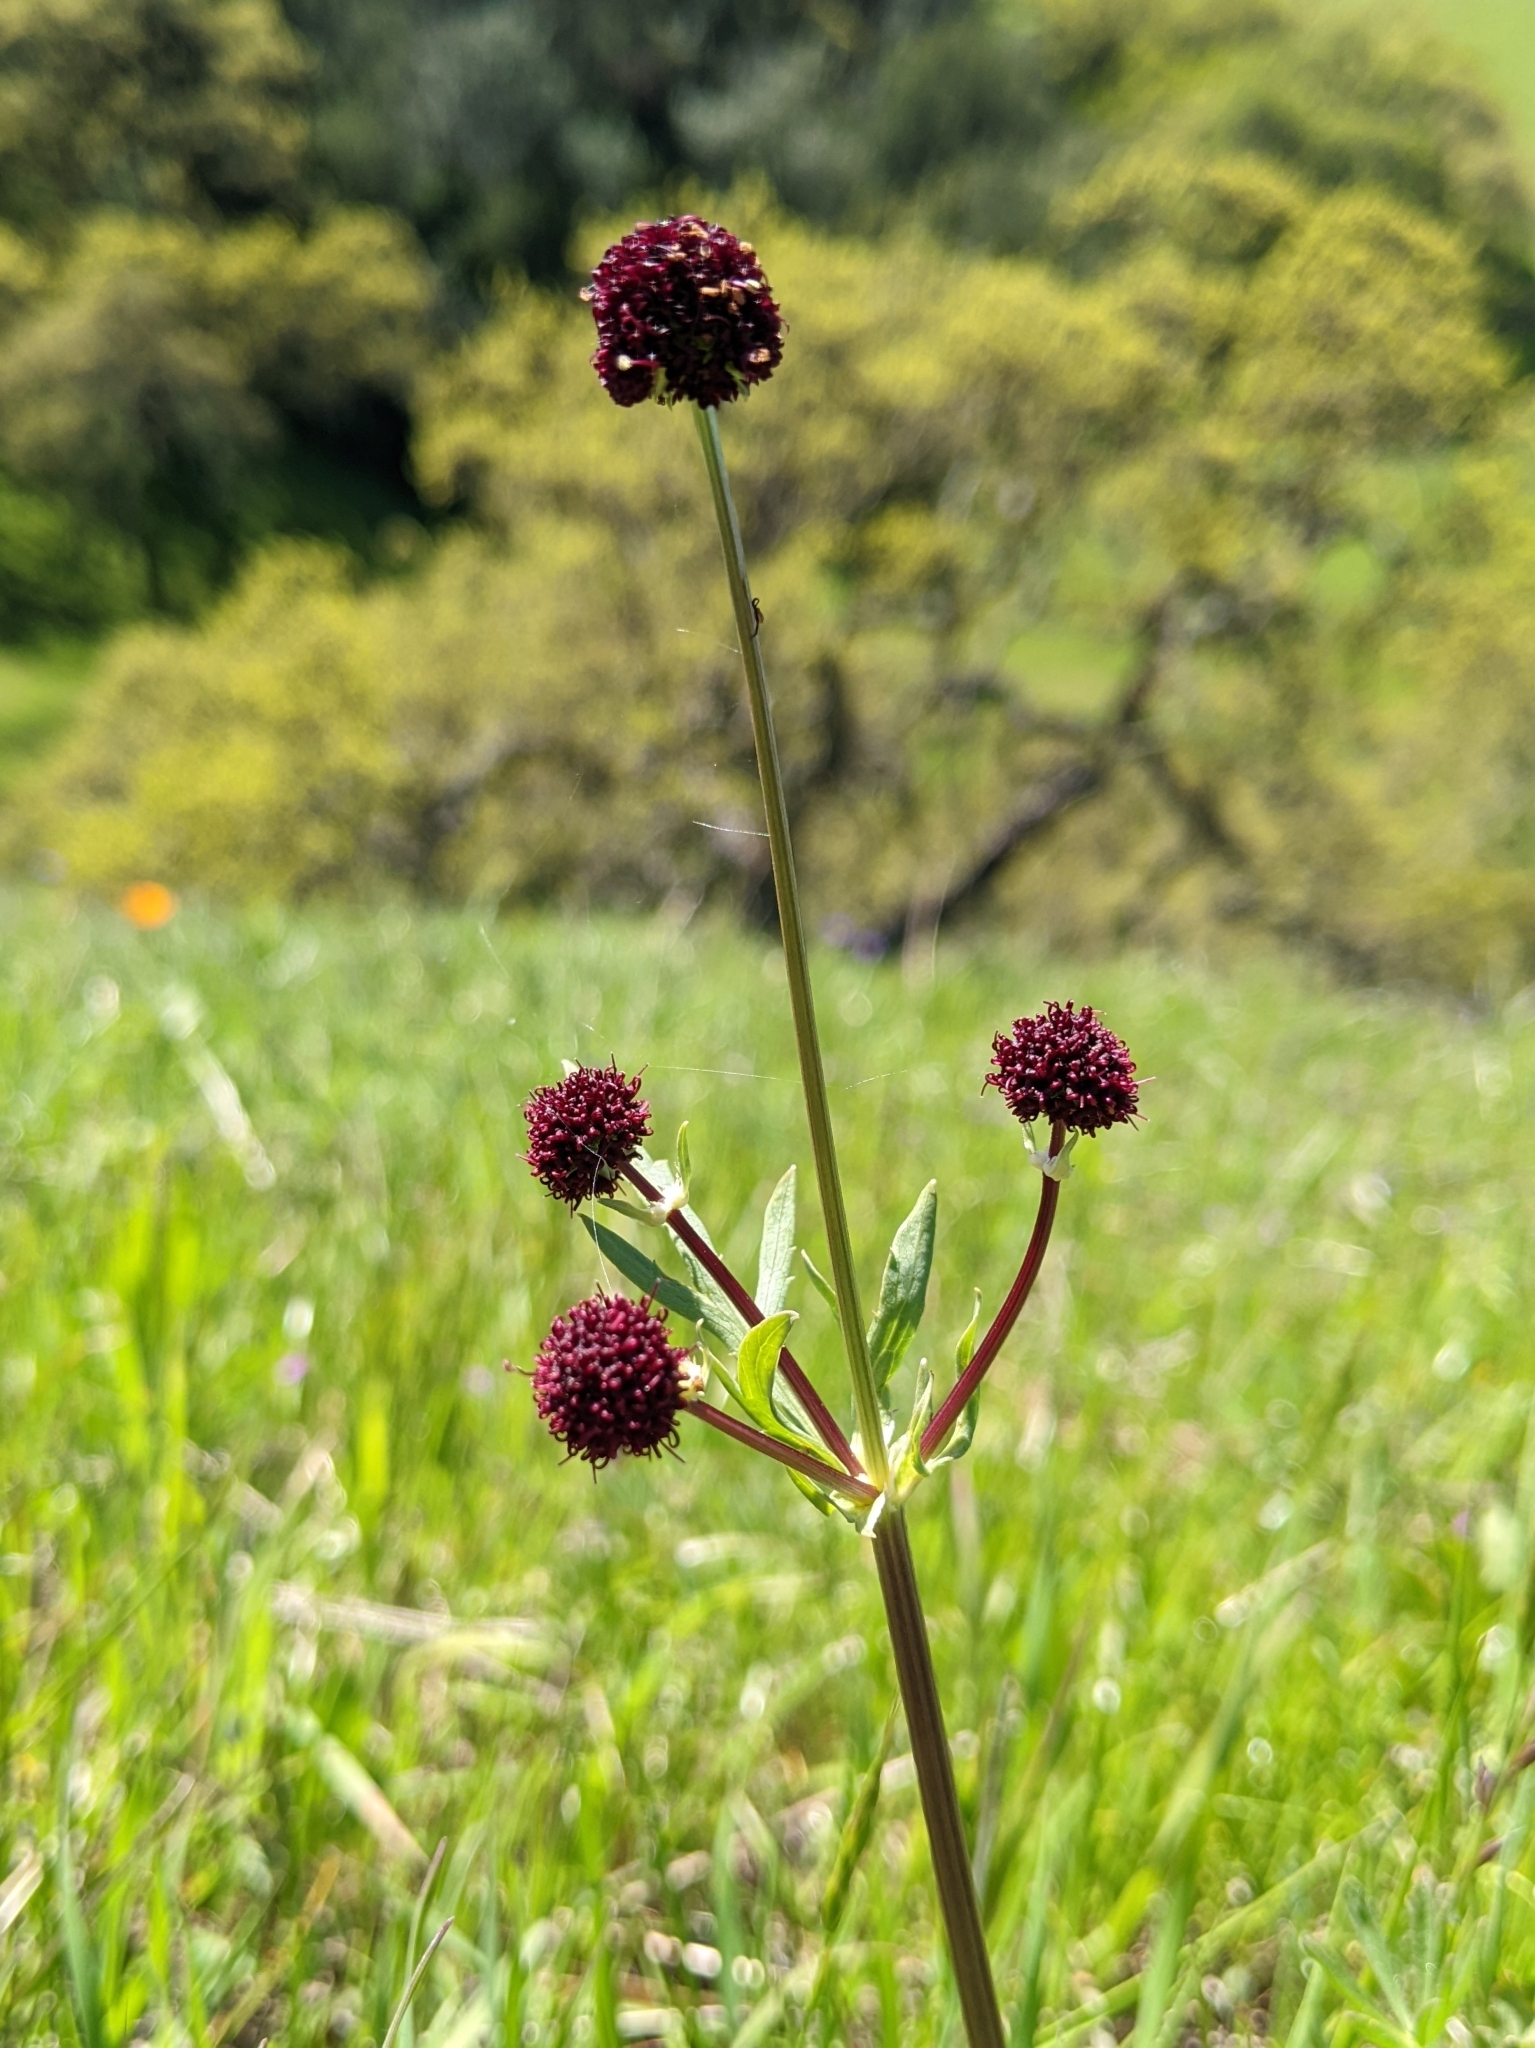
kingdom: Plantae
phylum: Tracheophyta
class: Magnoliopsida
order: Apiales
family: Apiaceae
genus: Sanicula
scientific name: Sanicula bipinnatifida
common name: Shoe-buttons
